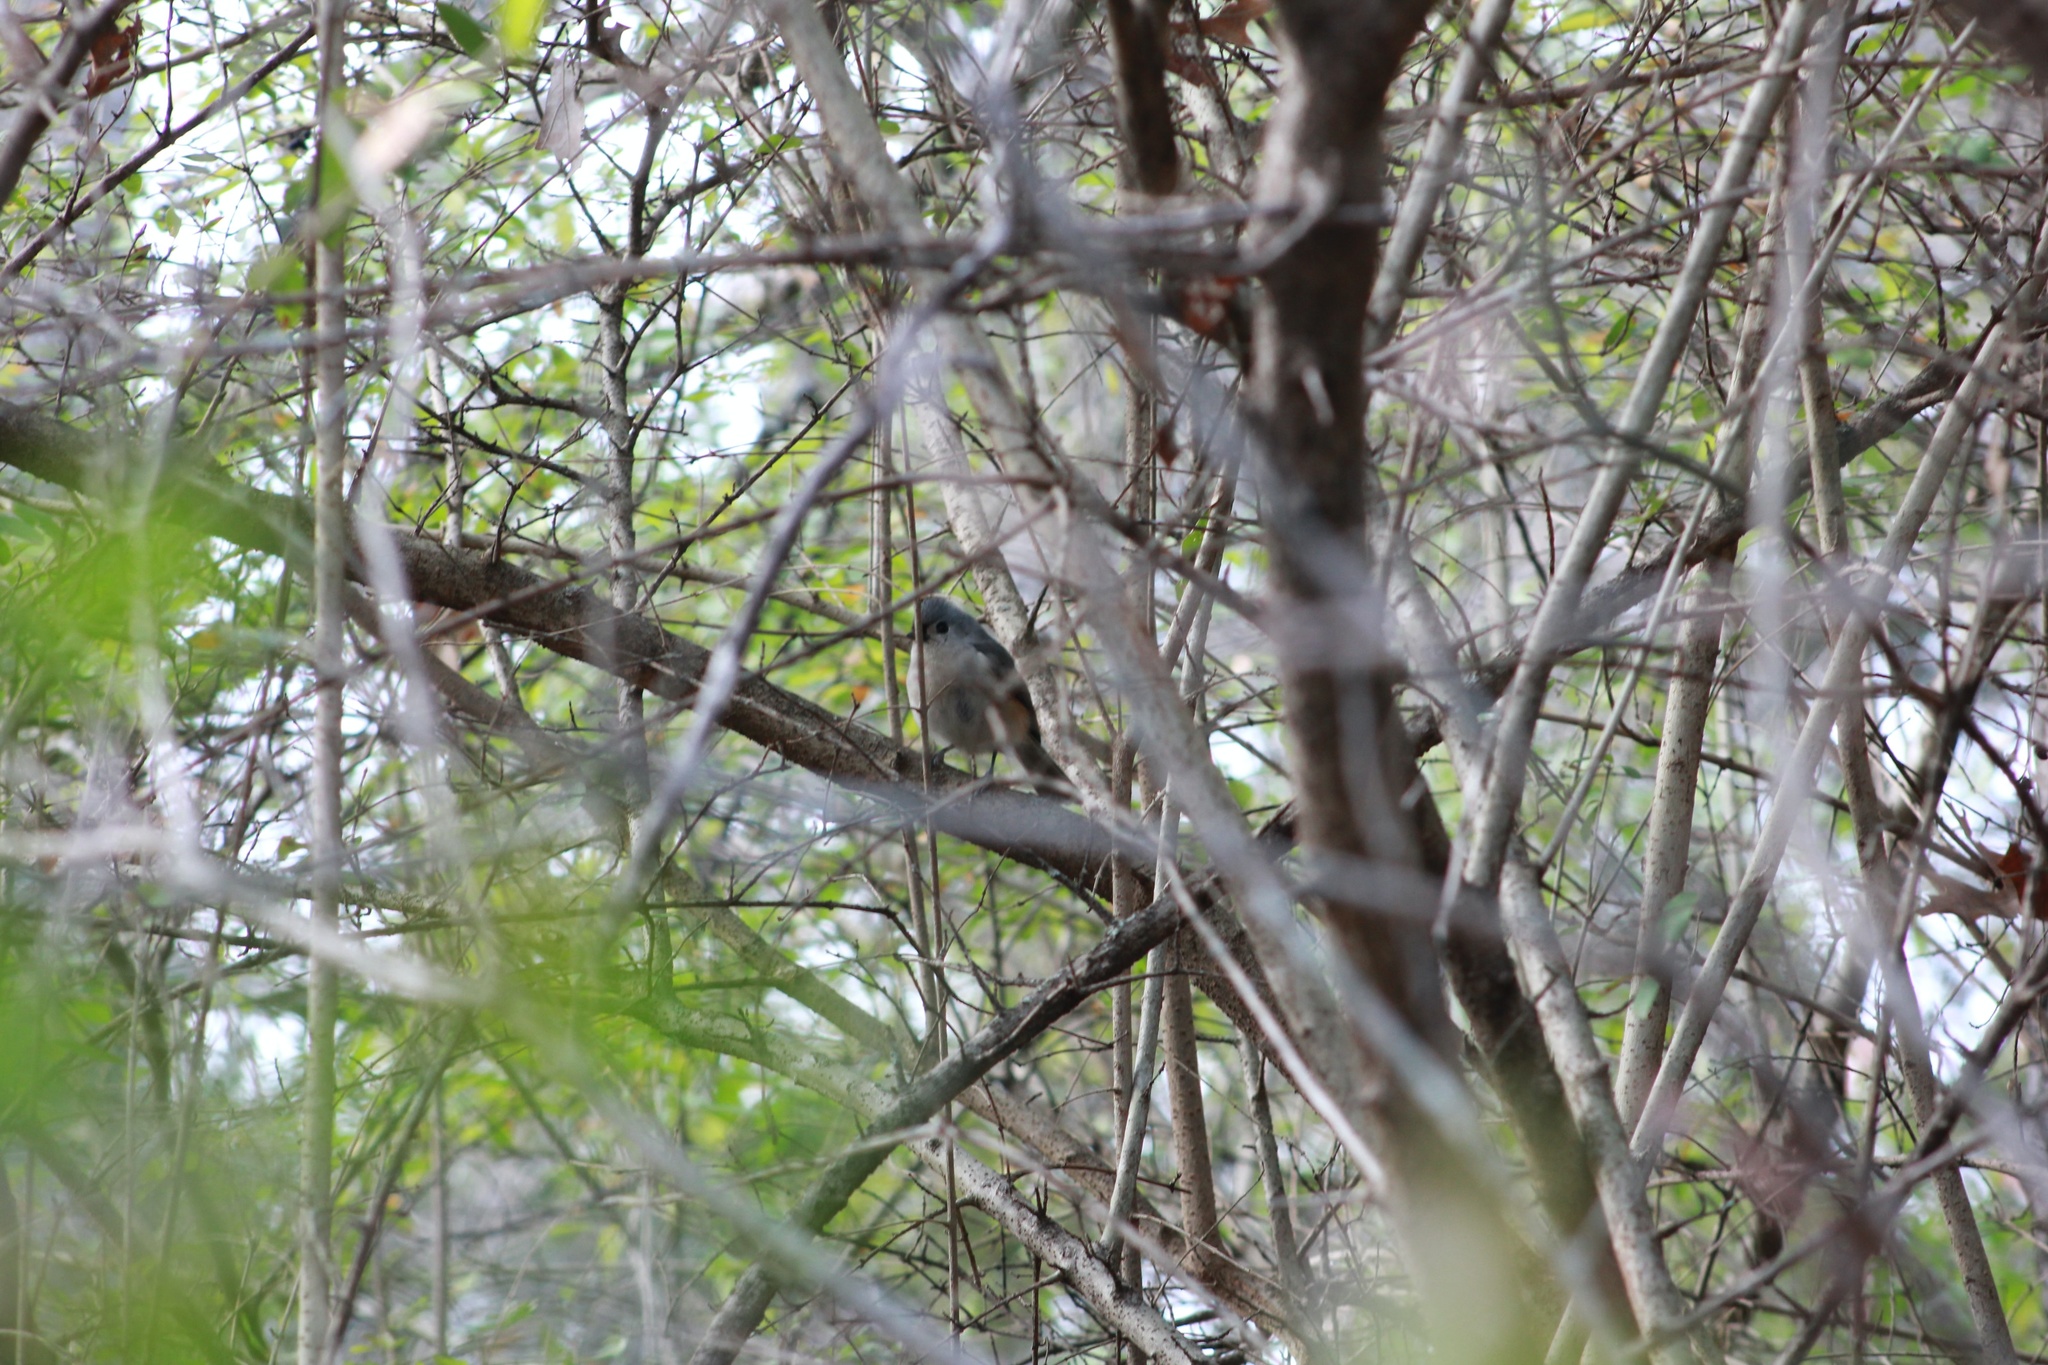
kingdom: Animalia
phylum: Chordata
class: Aves
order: Passeriformes
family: Paridae
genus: Baeolophus
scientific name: Baeolophus bicolor
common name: Tufted titmouse
